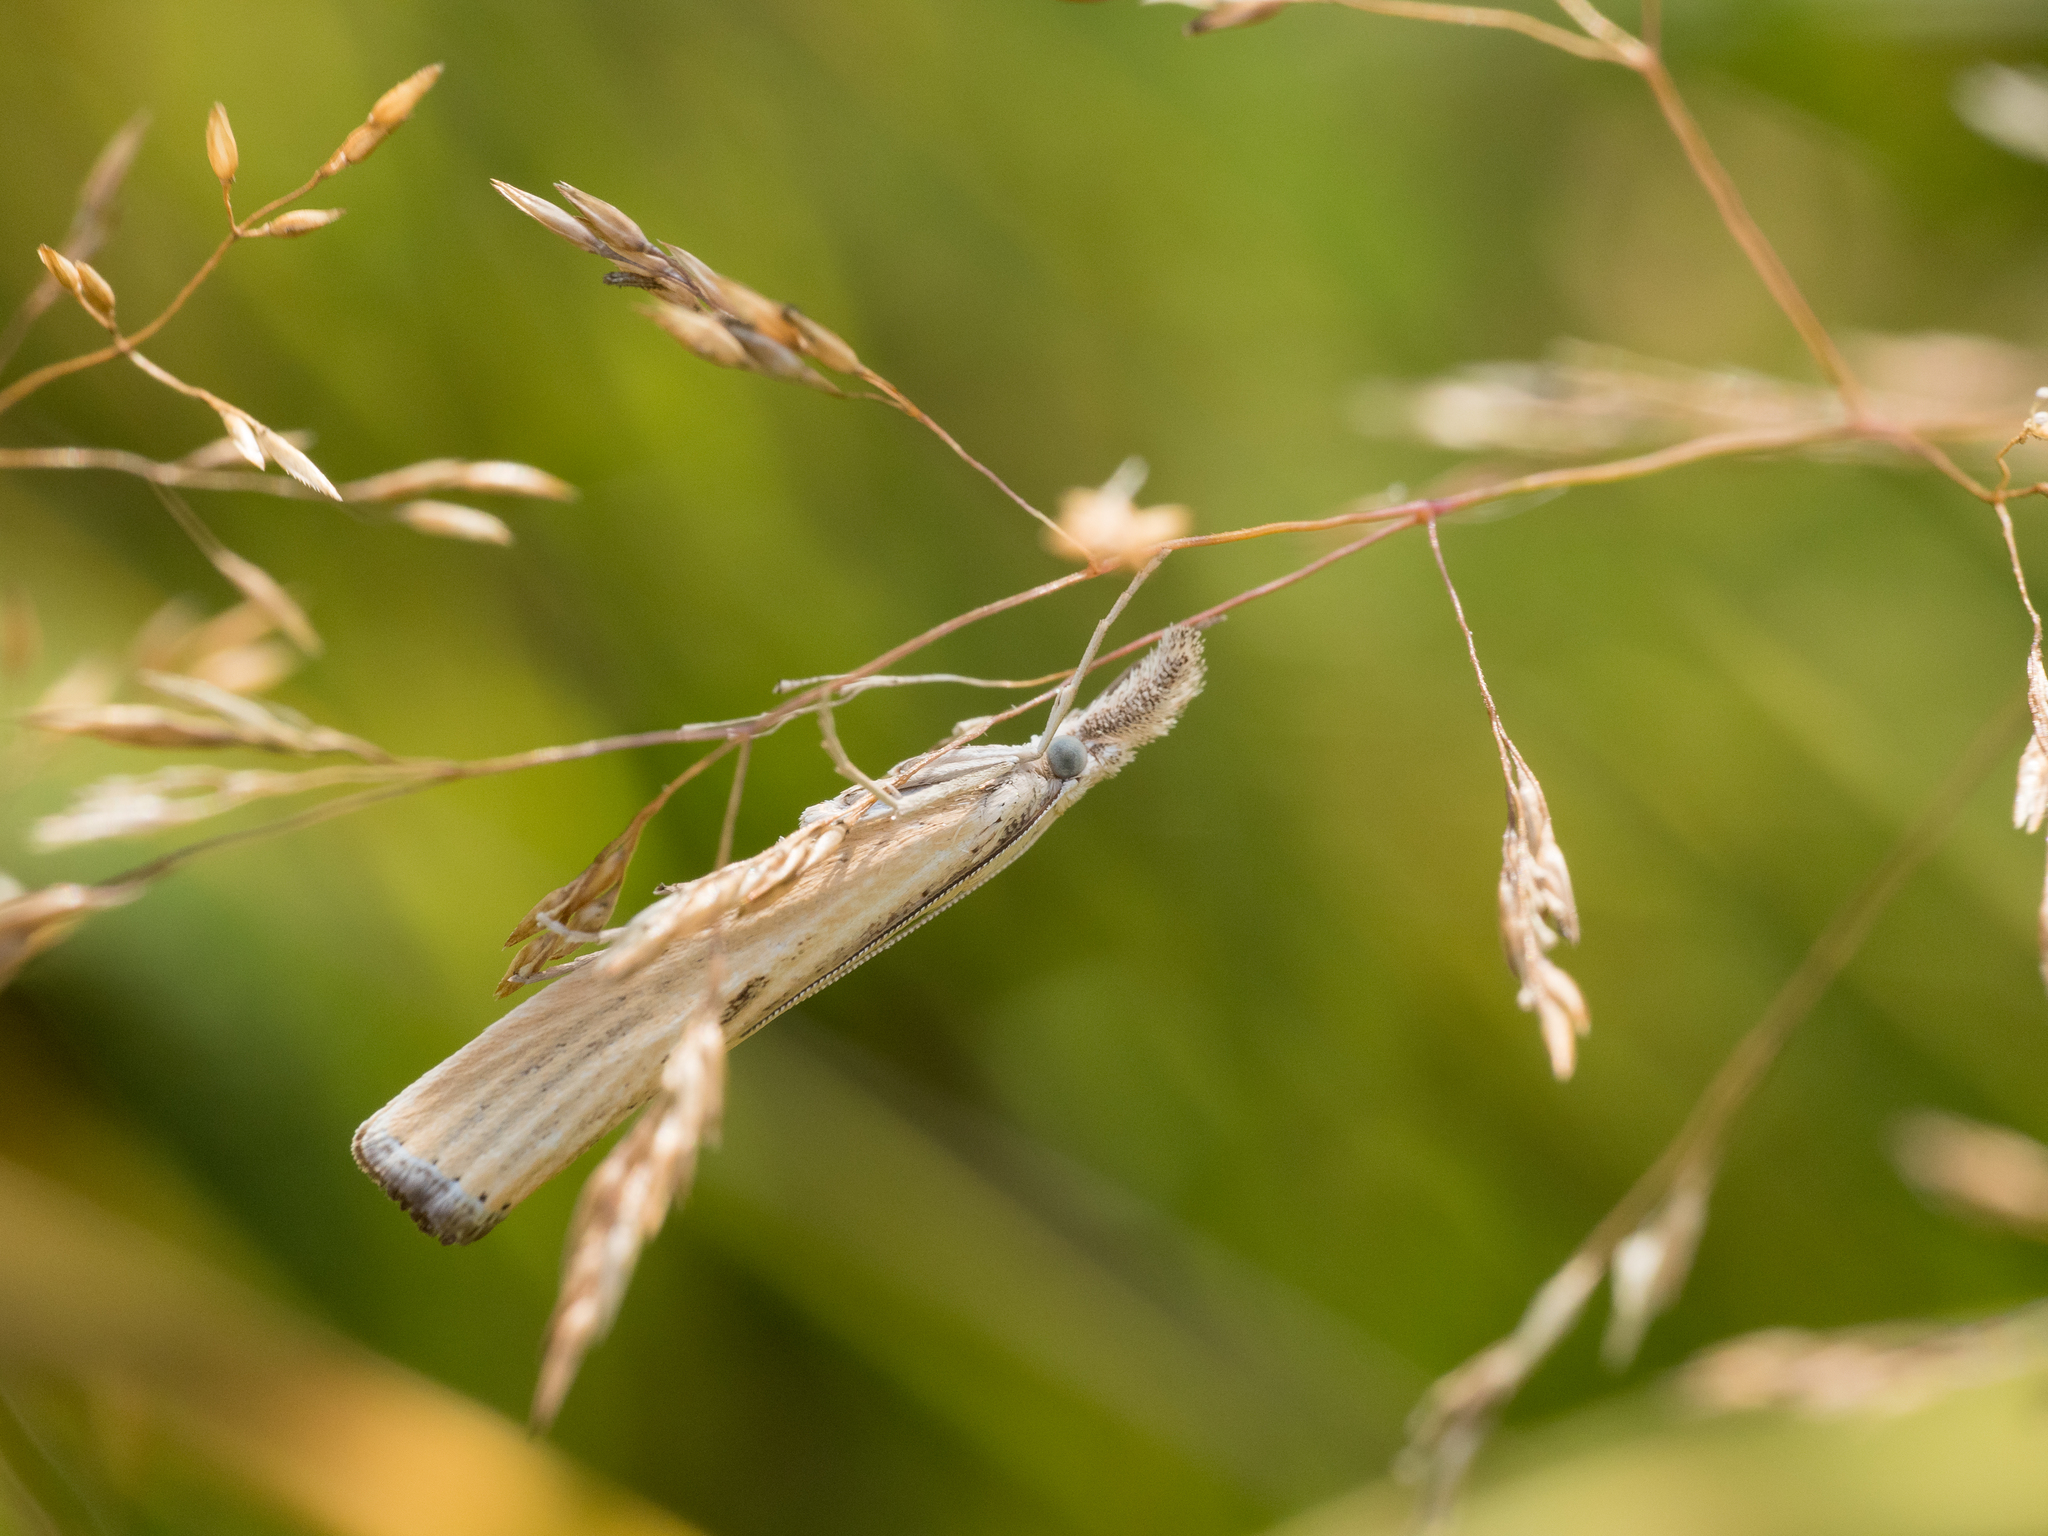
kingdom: Animalia
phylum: Arthropoda
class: Insecta
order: Lepidoptera
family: Crambidae
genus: Agriphila
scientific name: Agriphila inquinatella
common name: Barred grass-veneer
